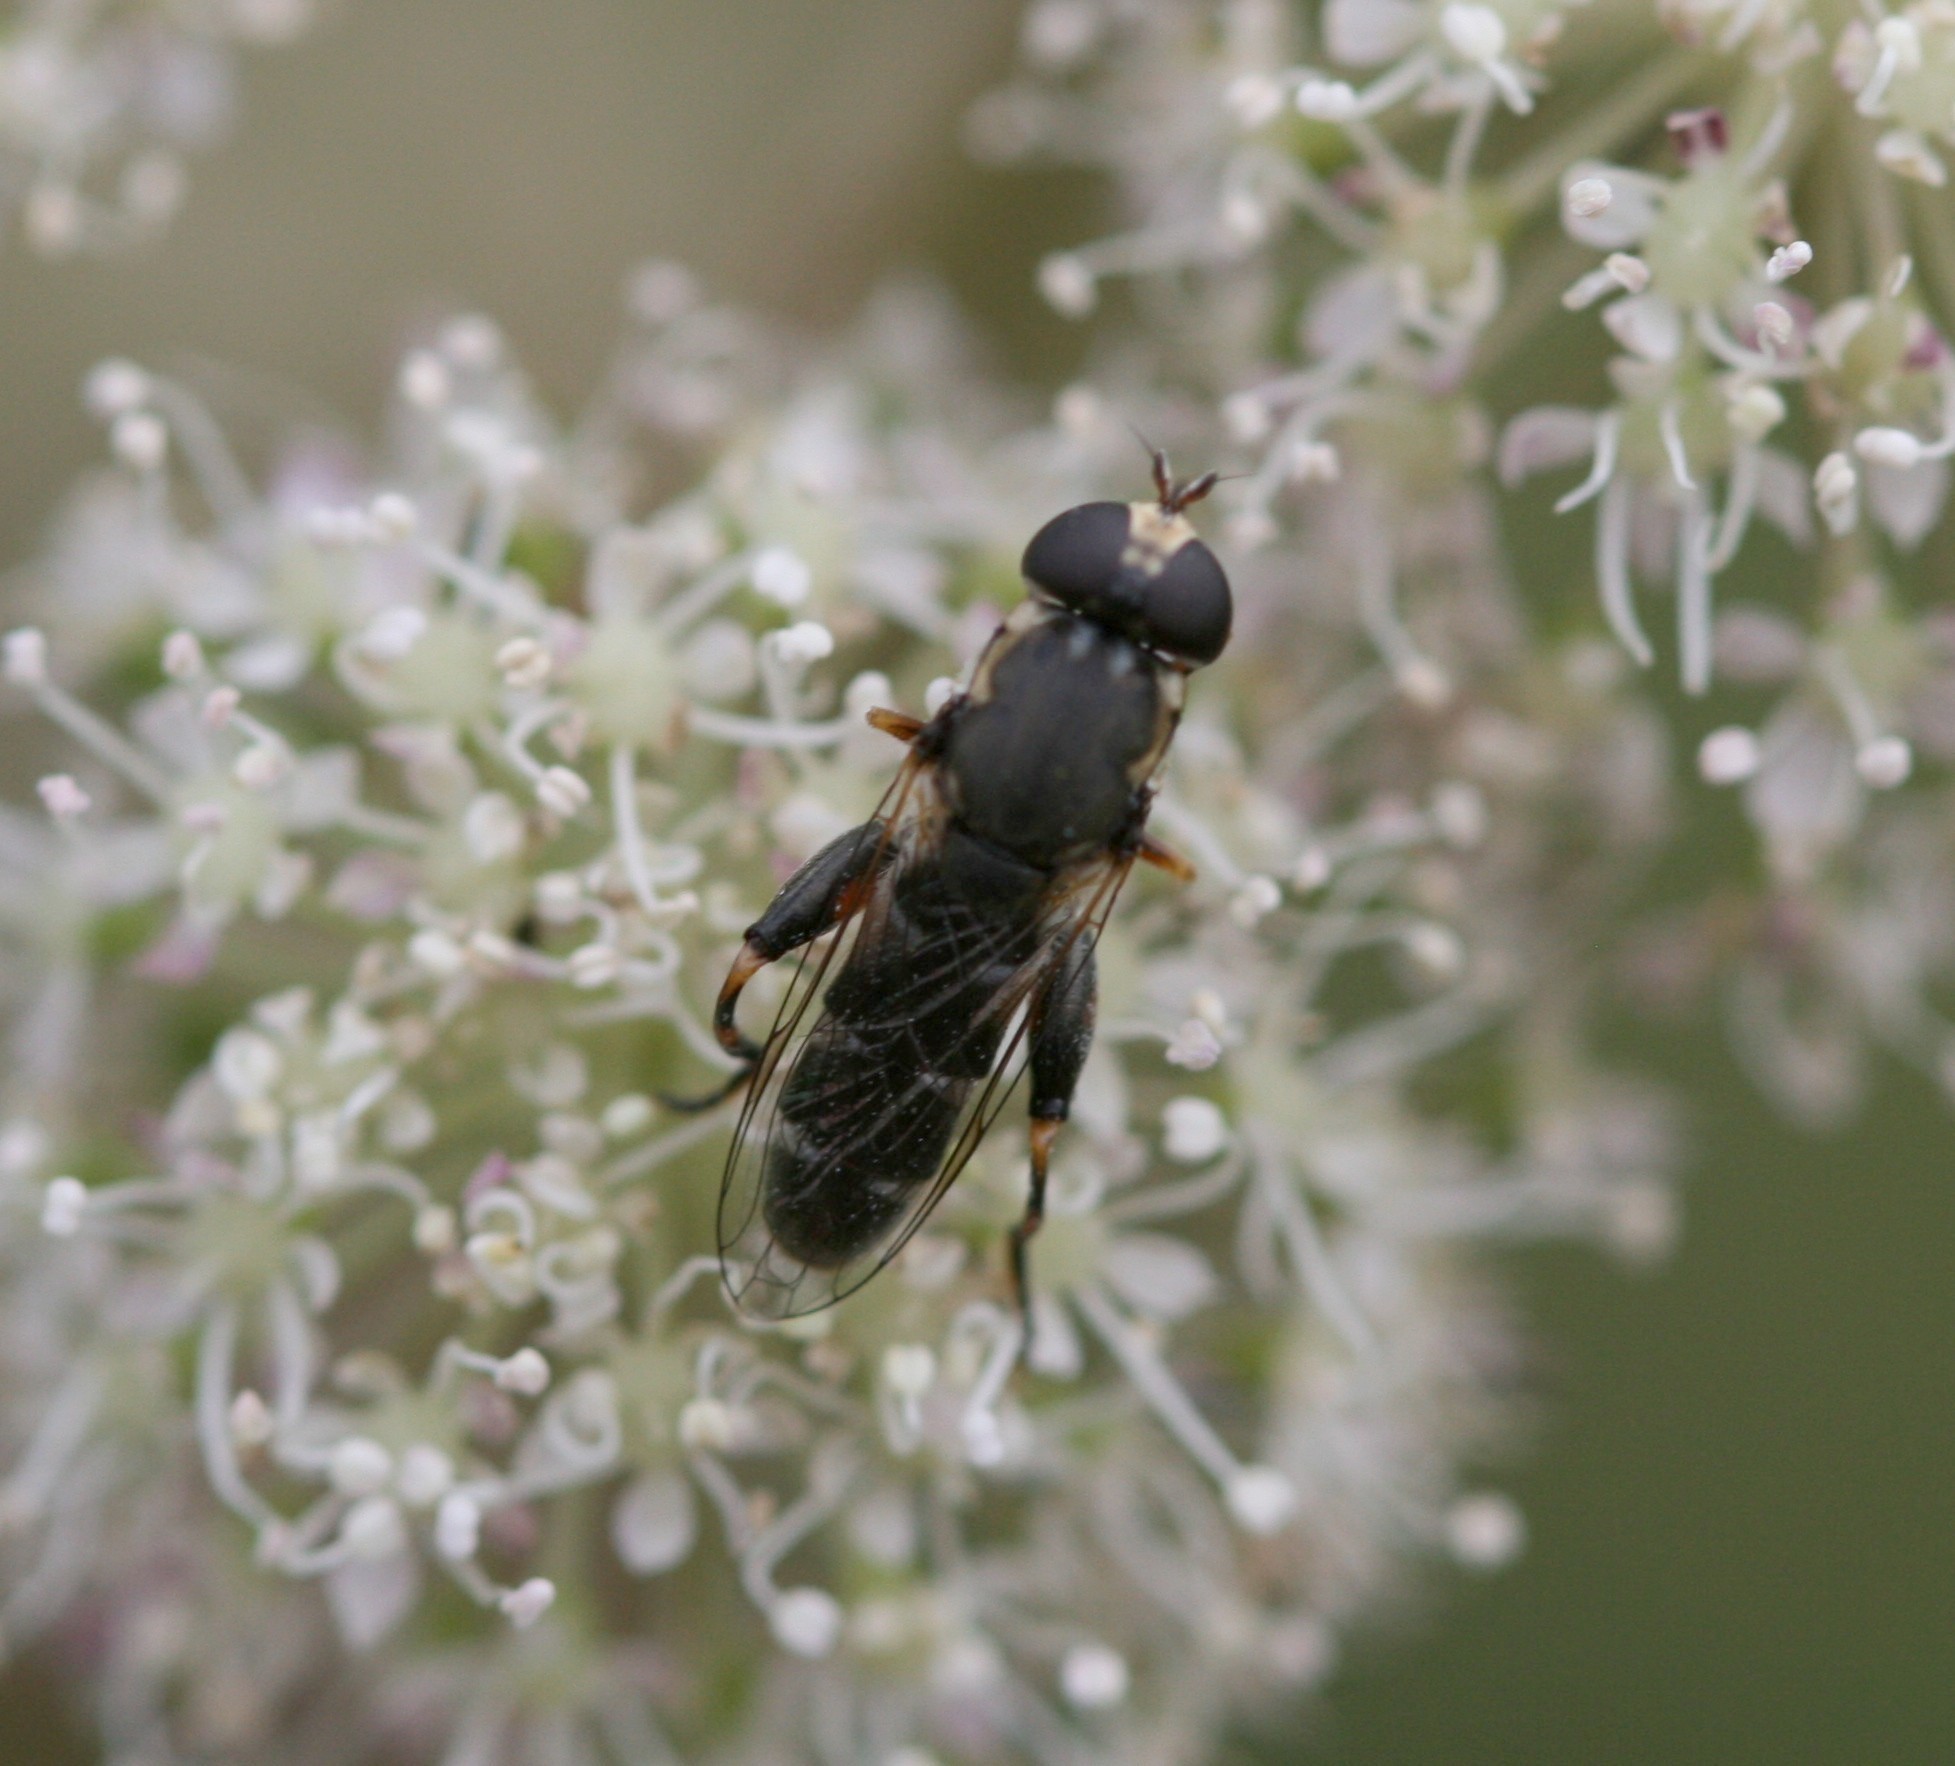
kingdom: Animalia
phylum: Arthropoda
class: Insecta
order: Diptera
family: Syrphidae
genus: Syritta
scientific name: Syritta pipiens
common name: Hover fly
